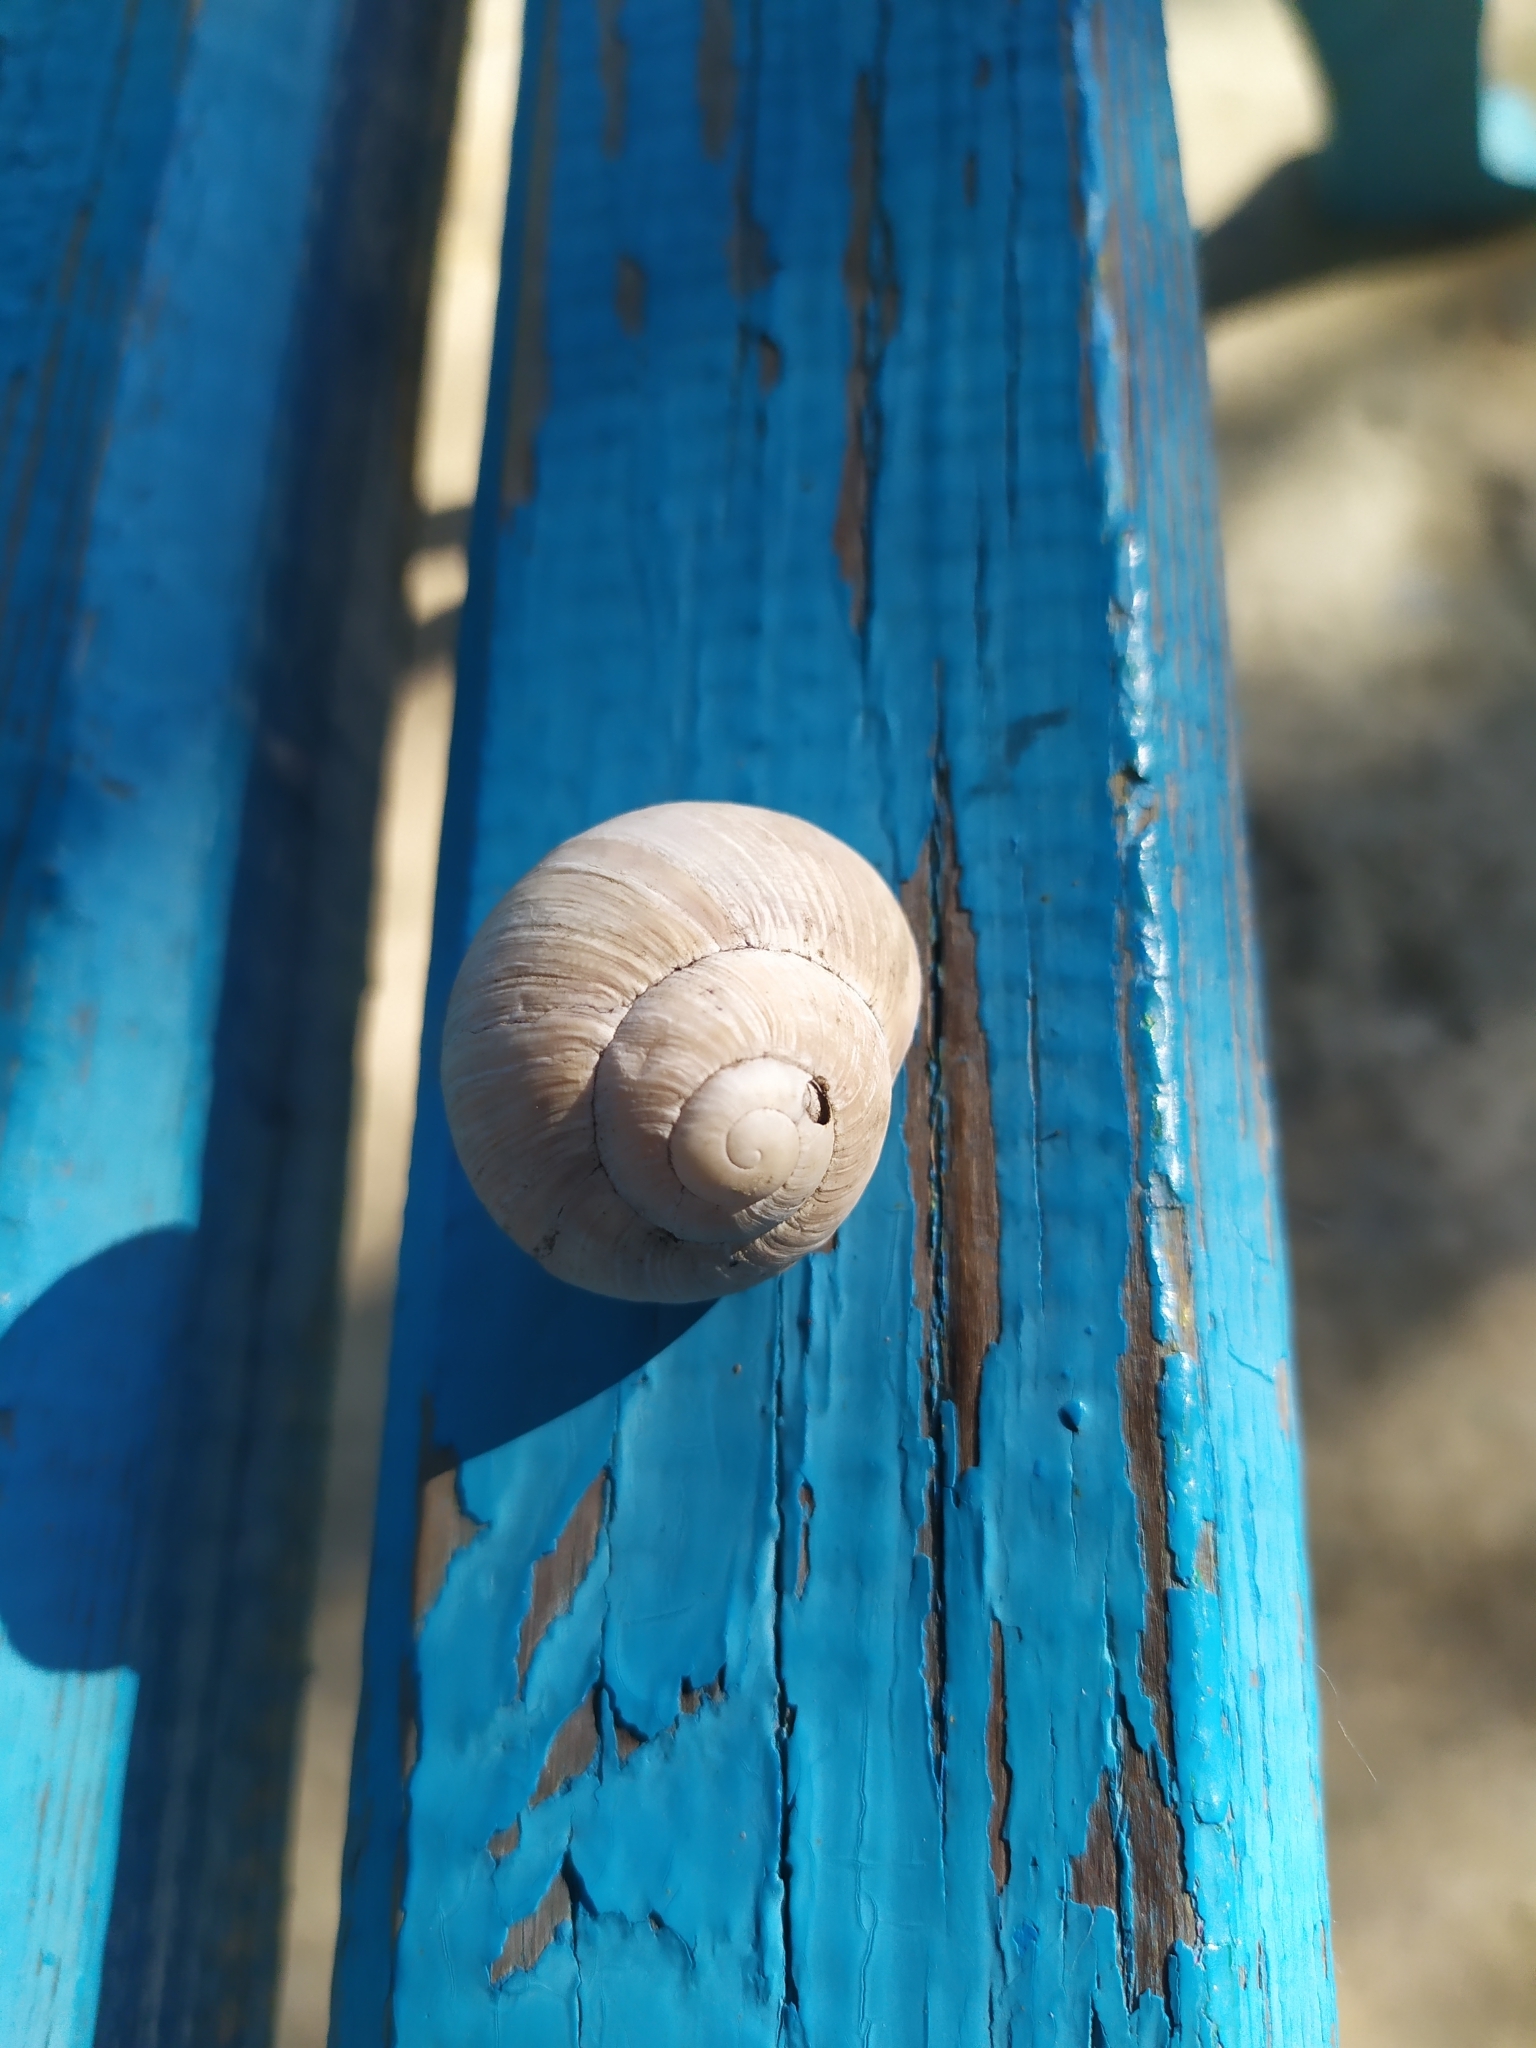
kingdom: Animalia
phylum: Mollusca
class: Gastropoda
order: Stylommatophora
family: Helicidae
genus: Helix
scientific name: Helix albescens
